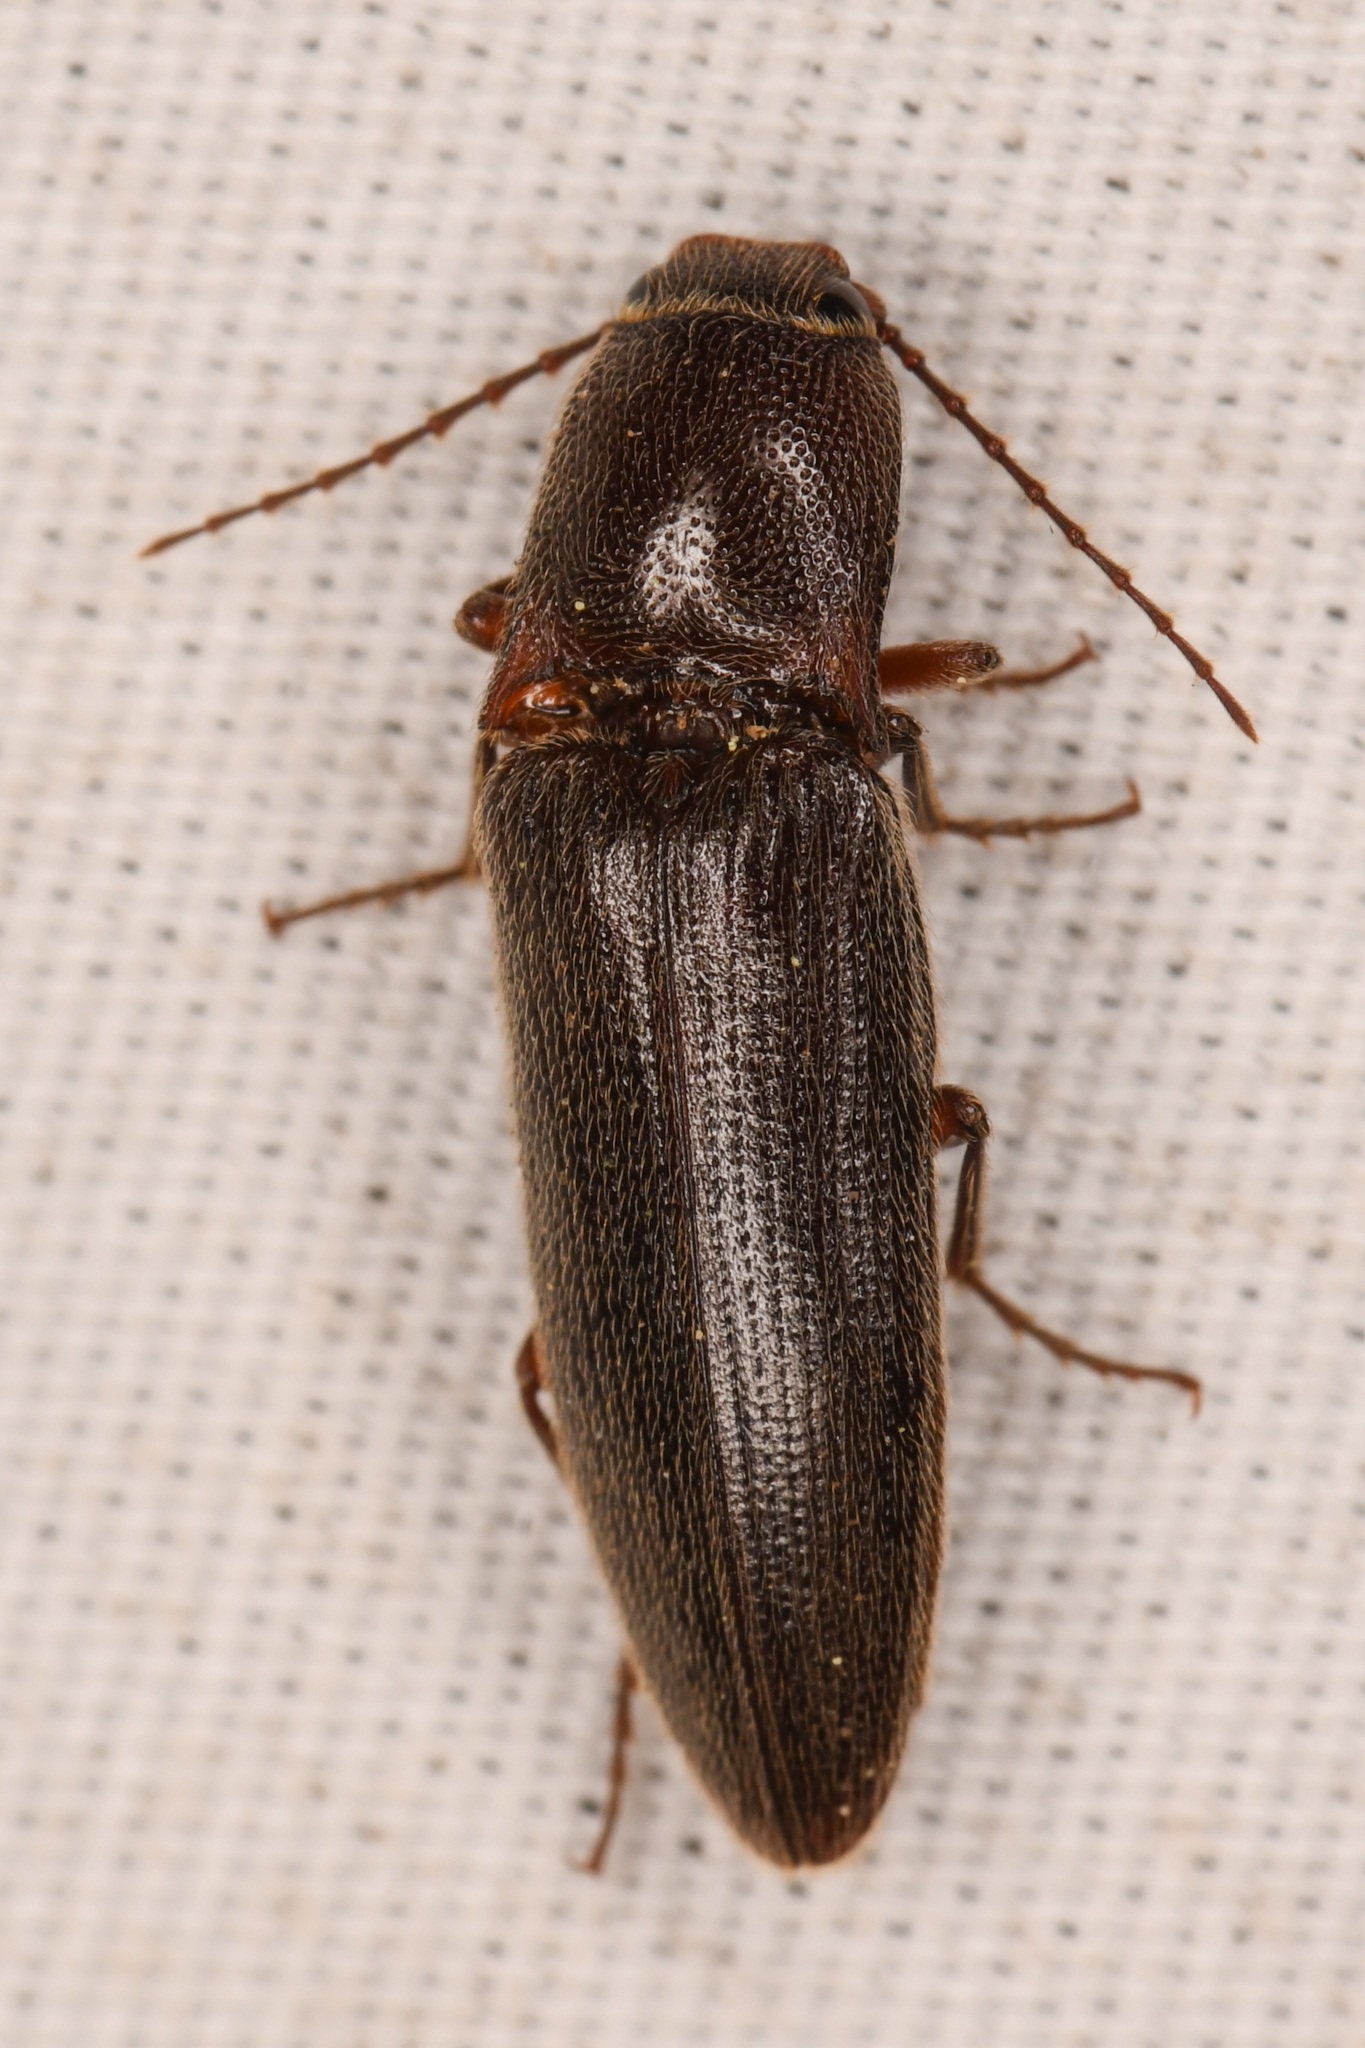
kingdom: Animalia
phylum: Arthropoda
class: Insecta
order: Coleoptera
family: Elateridae
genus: Melanotus
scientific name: Melanotus longulus
